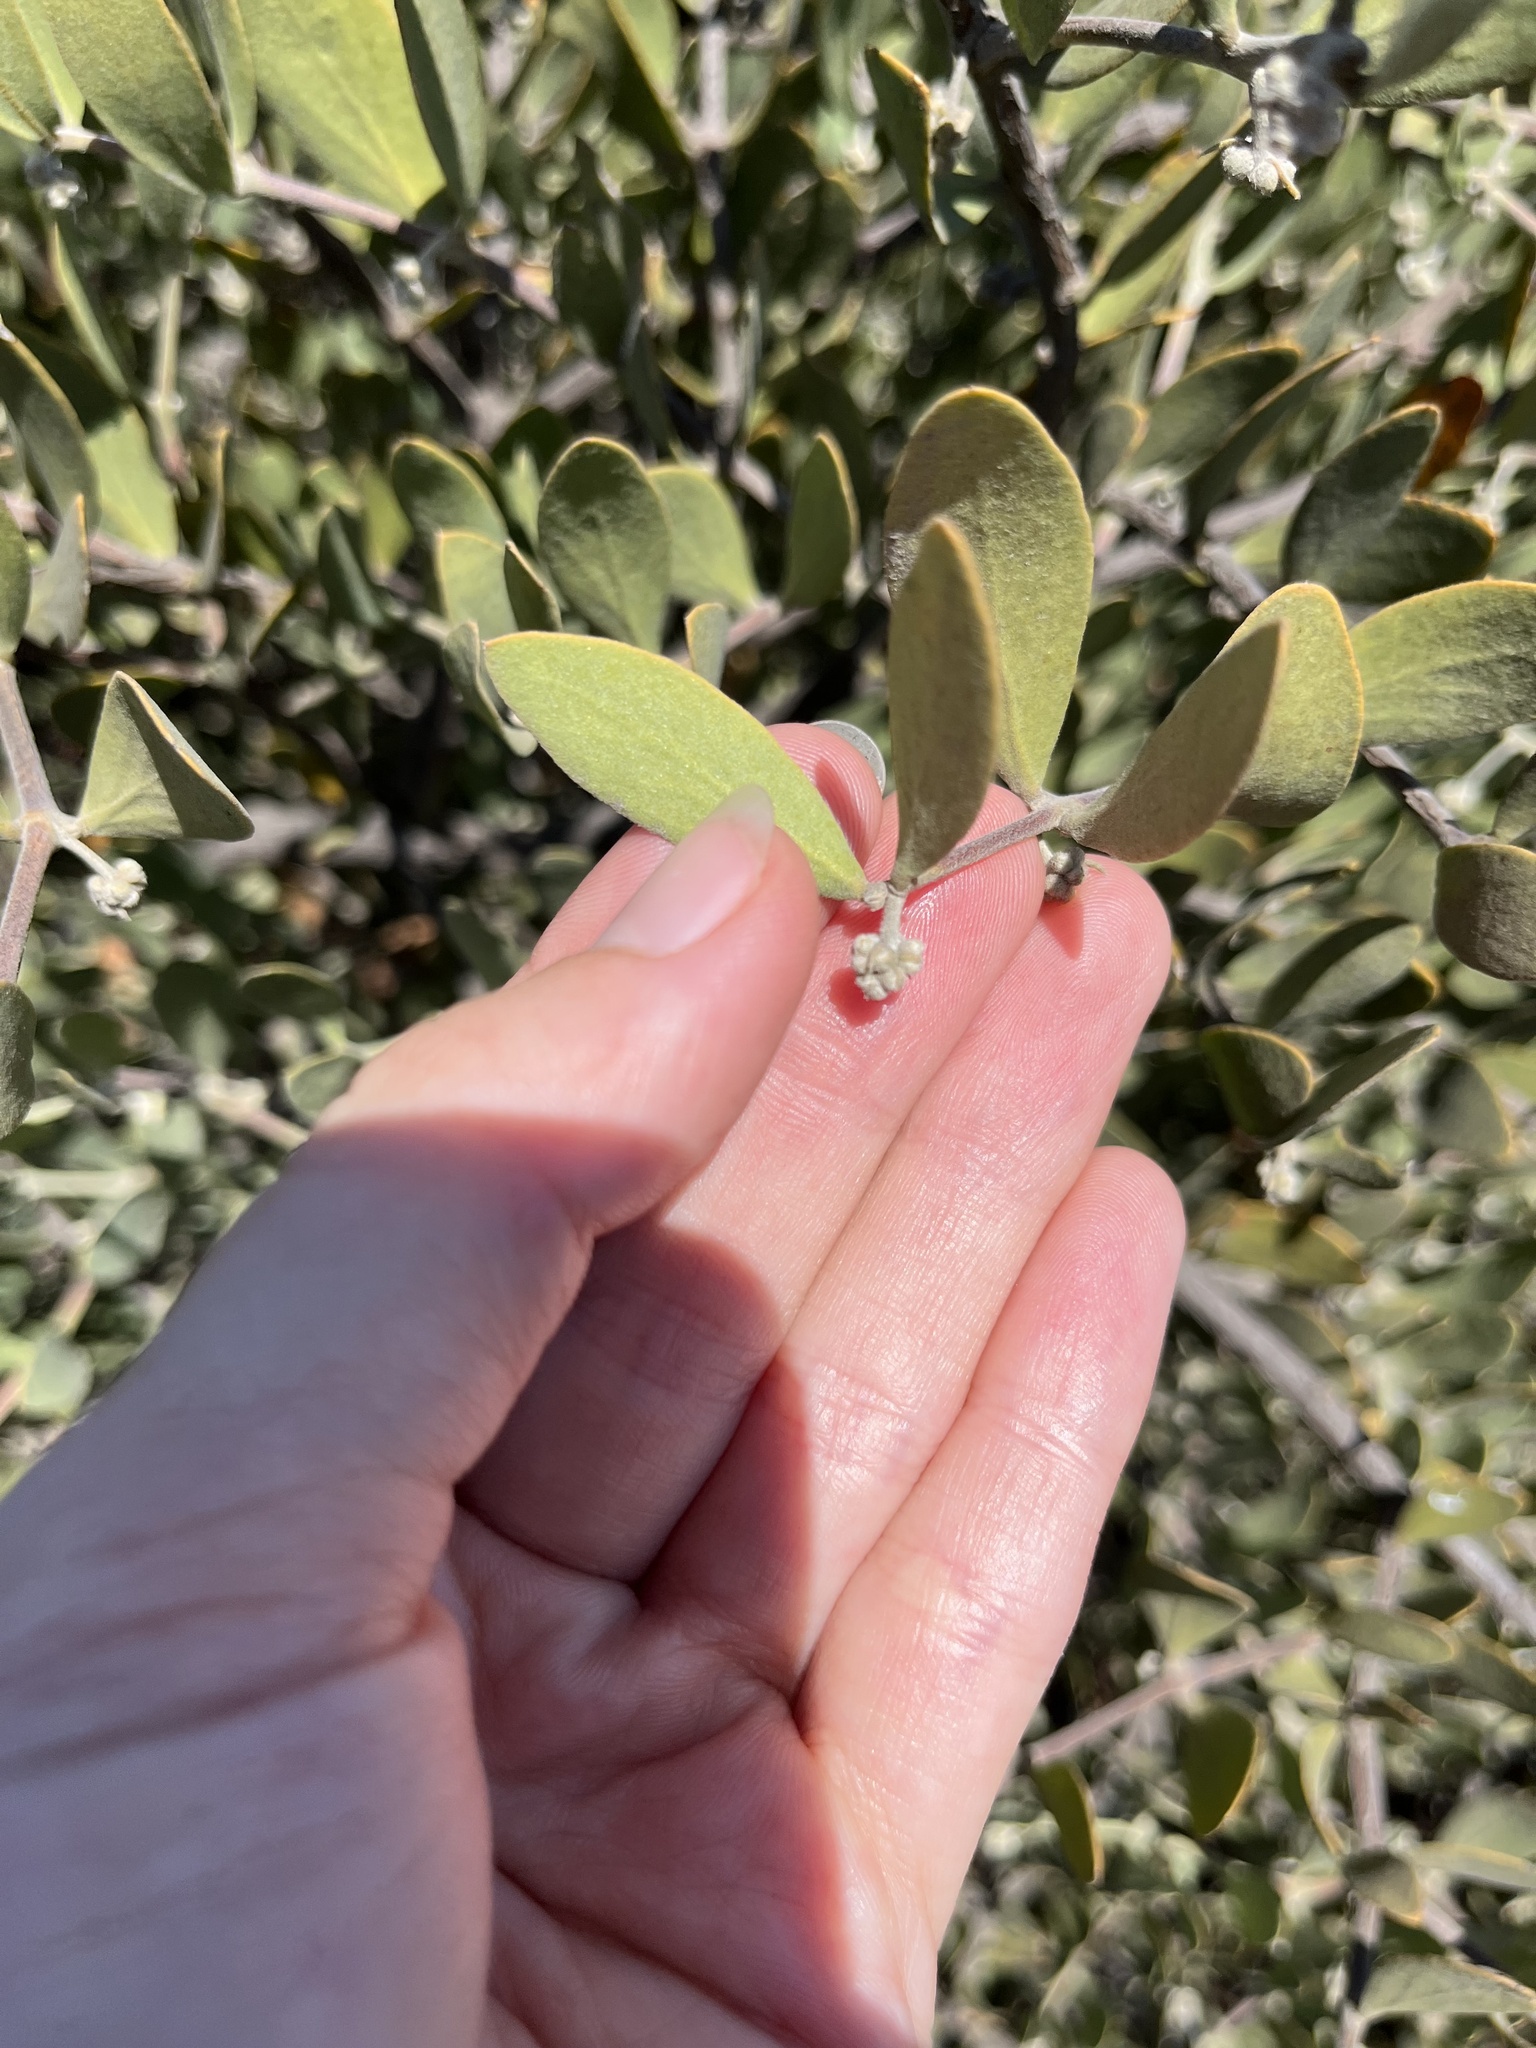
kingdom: Plantae
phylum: Tracheophyta
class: Magnoliopsida
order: Caryophyllales
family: Simmondsiaceae
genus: Simmondsia
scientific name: Simmondsia chinensis
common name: Jojoba
